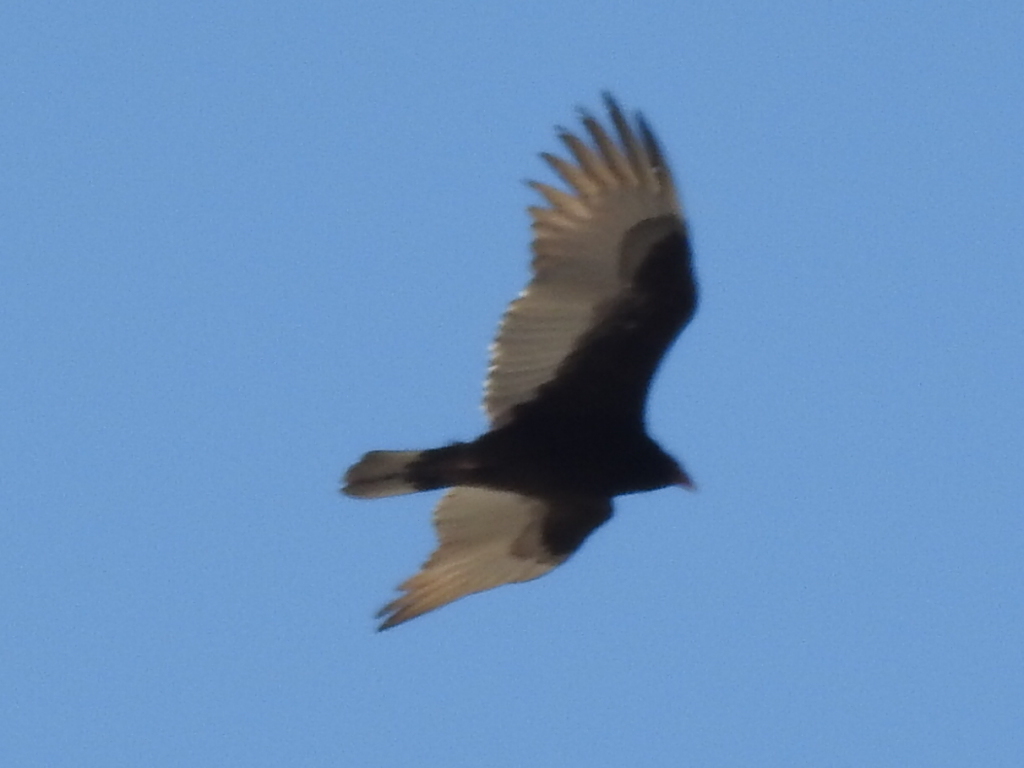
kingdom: Animalia
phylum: Chordata
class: Aves
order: Accipitriformes
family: Cathartidae
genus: Cathartes
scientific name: Cathartes aura
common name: Turkey vulture
